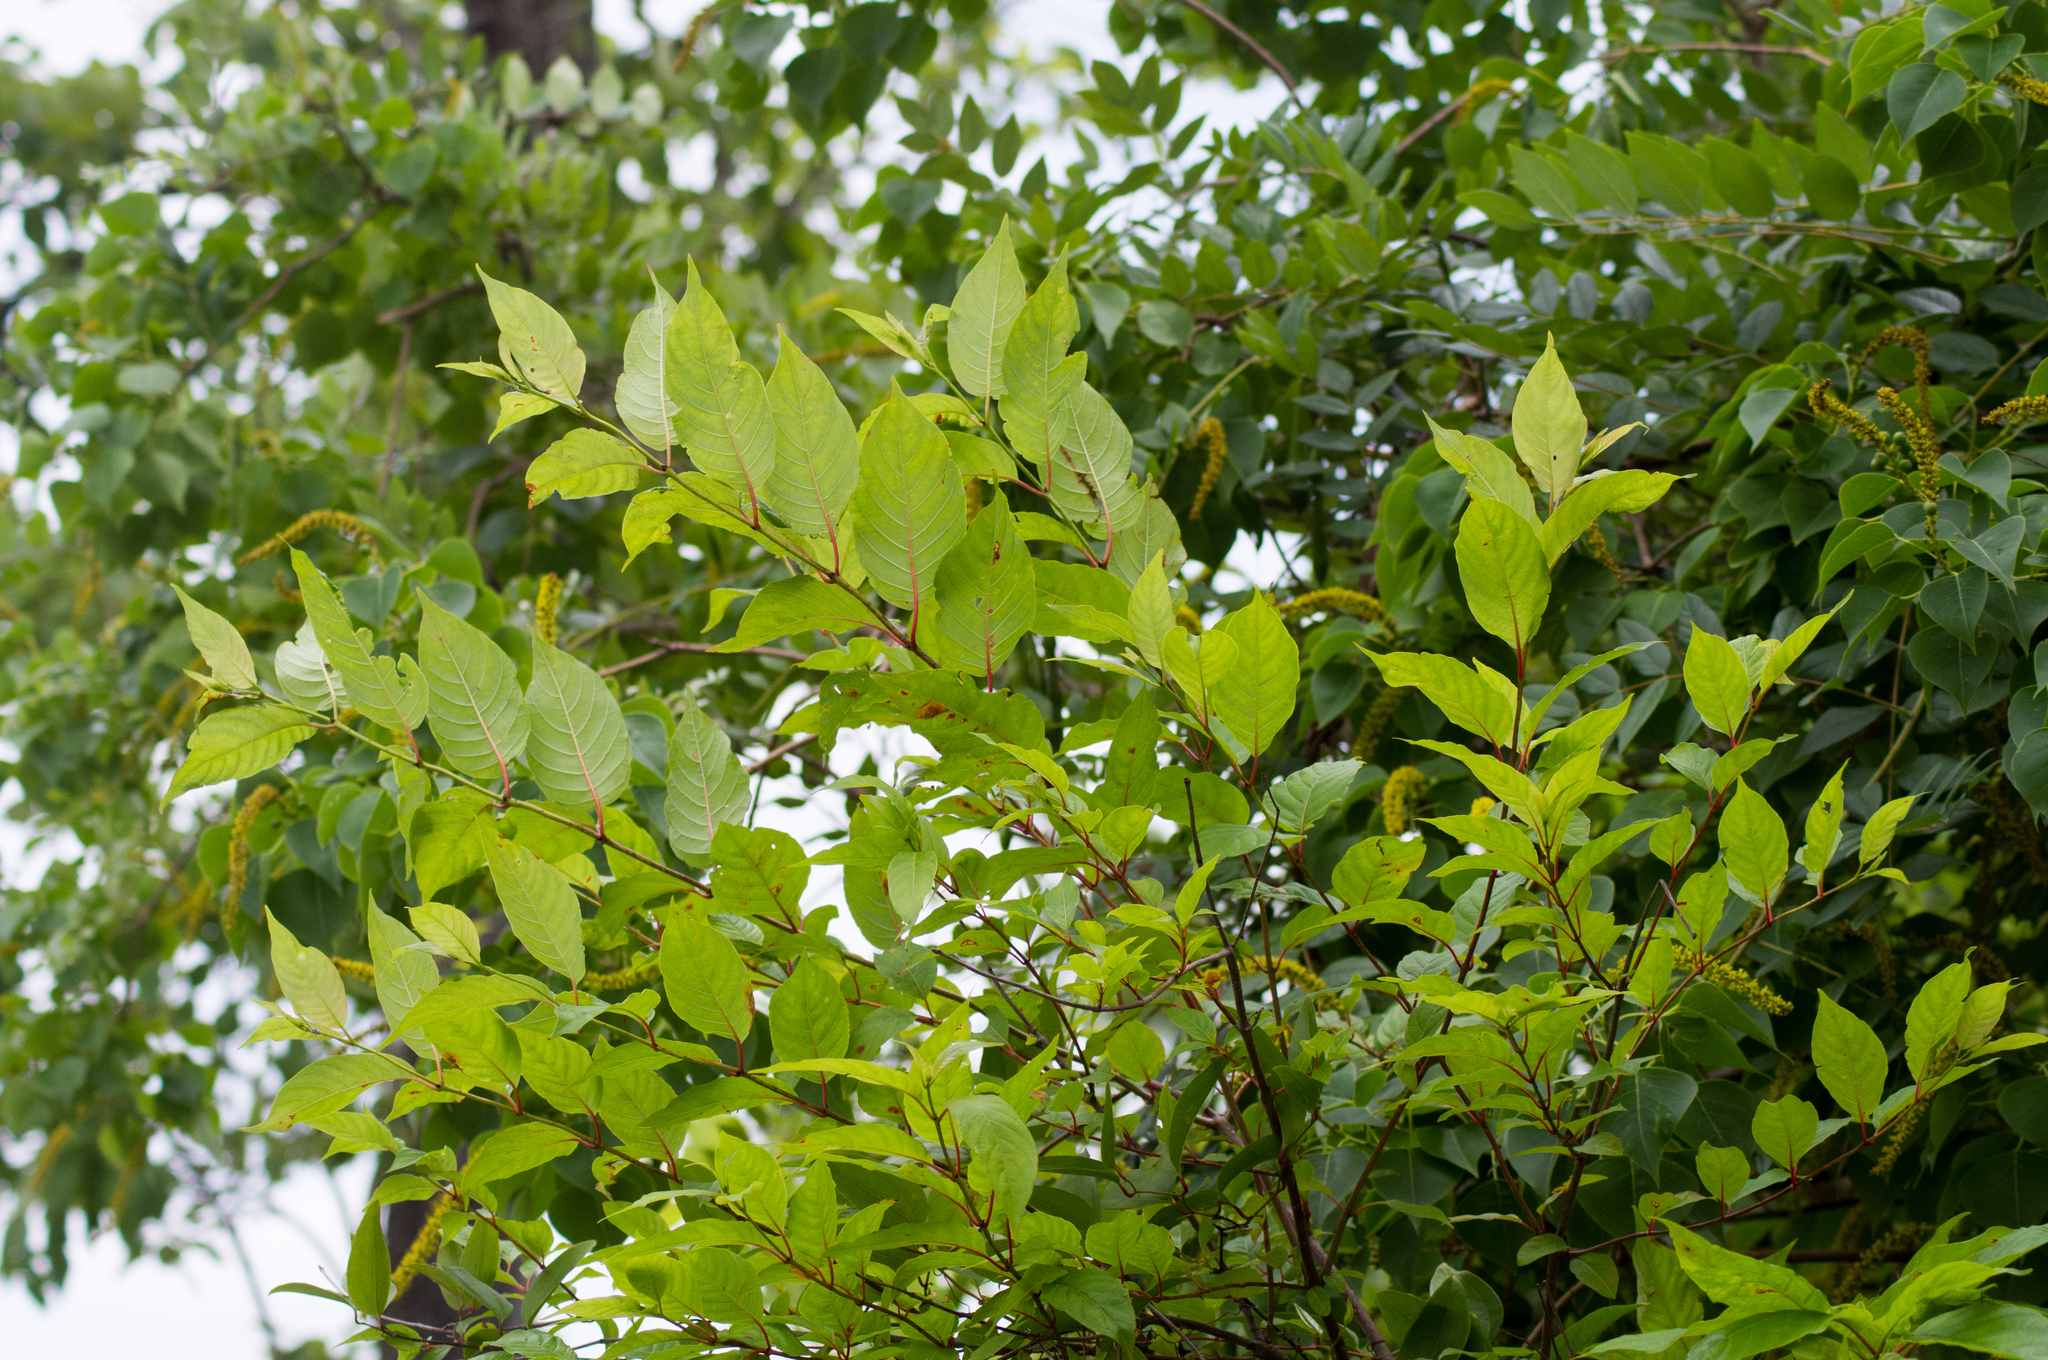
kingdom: Plantae
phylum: Tracheophyta
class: Magnoliopsida
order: Gentianales
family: Rubiaceae
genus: Cephalanthus
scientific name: Cephalanthus occidentalis
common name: Button-willow
